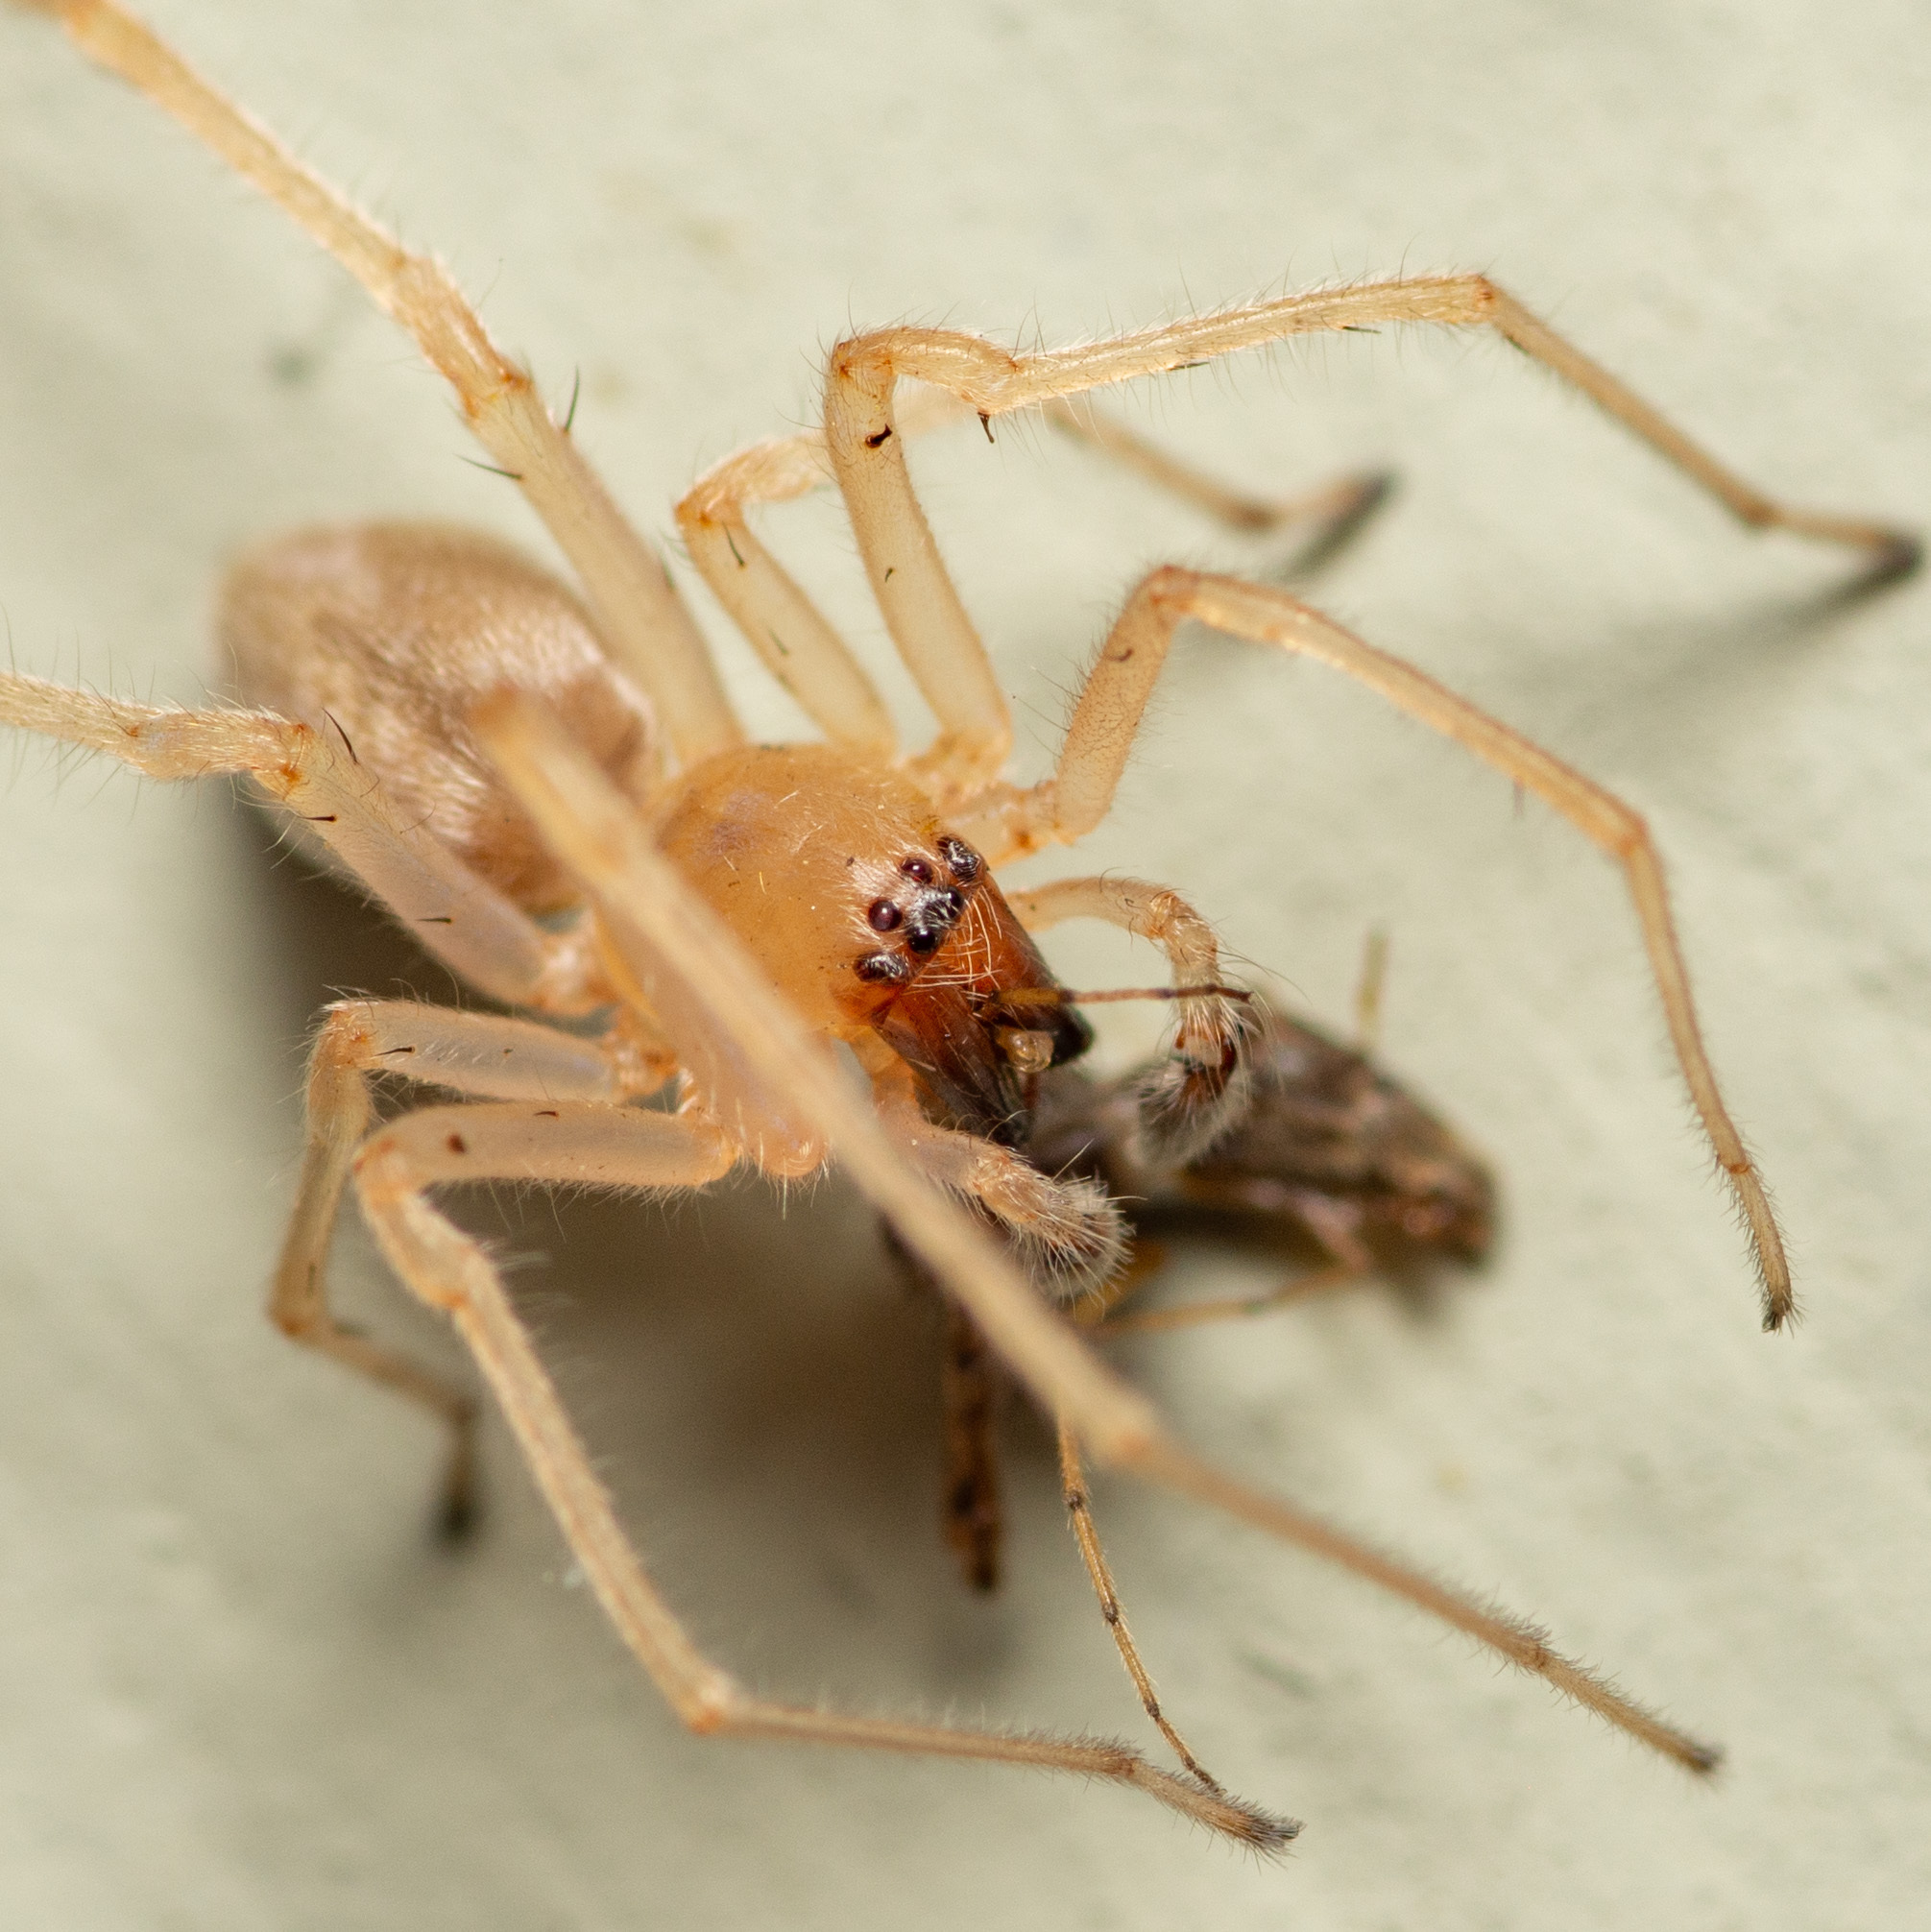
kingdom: Animalia
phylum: Arthropoda
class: Arachnida
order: Araneae
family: Cheiracanthiidae
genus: Cheiracanthium
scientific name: Cheiracanthium inclusum
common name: Long-legged sac spiders
